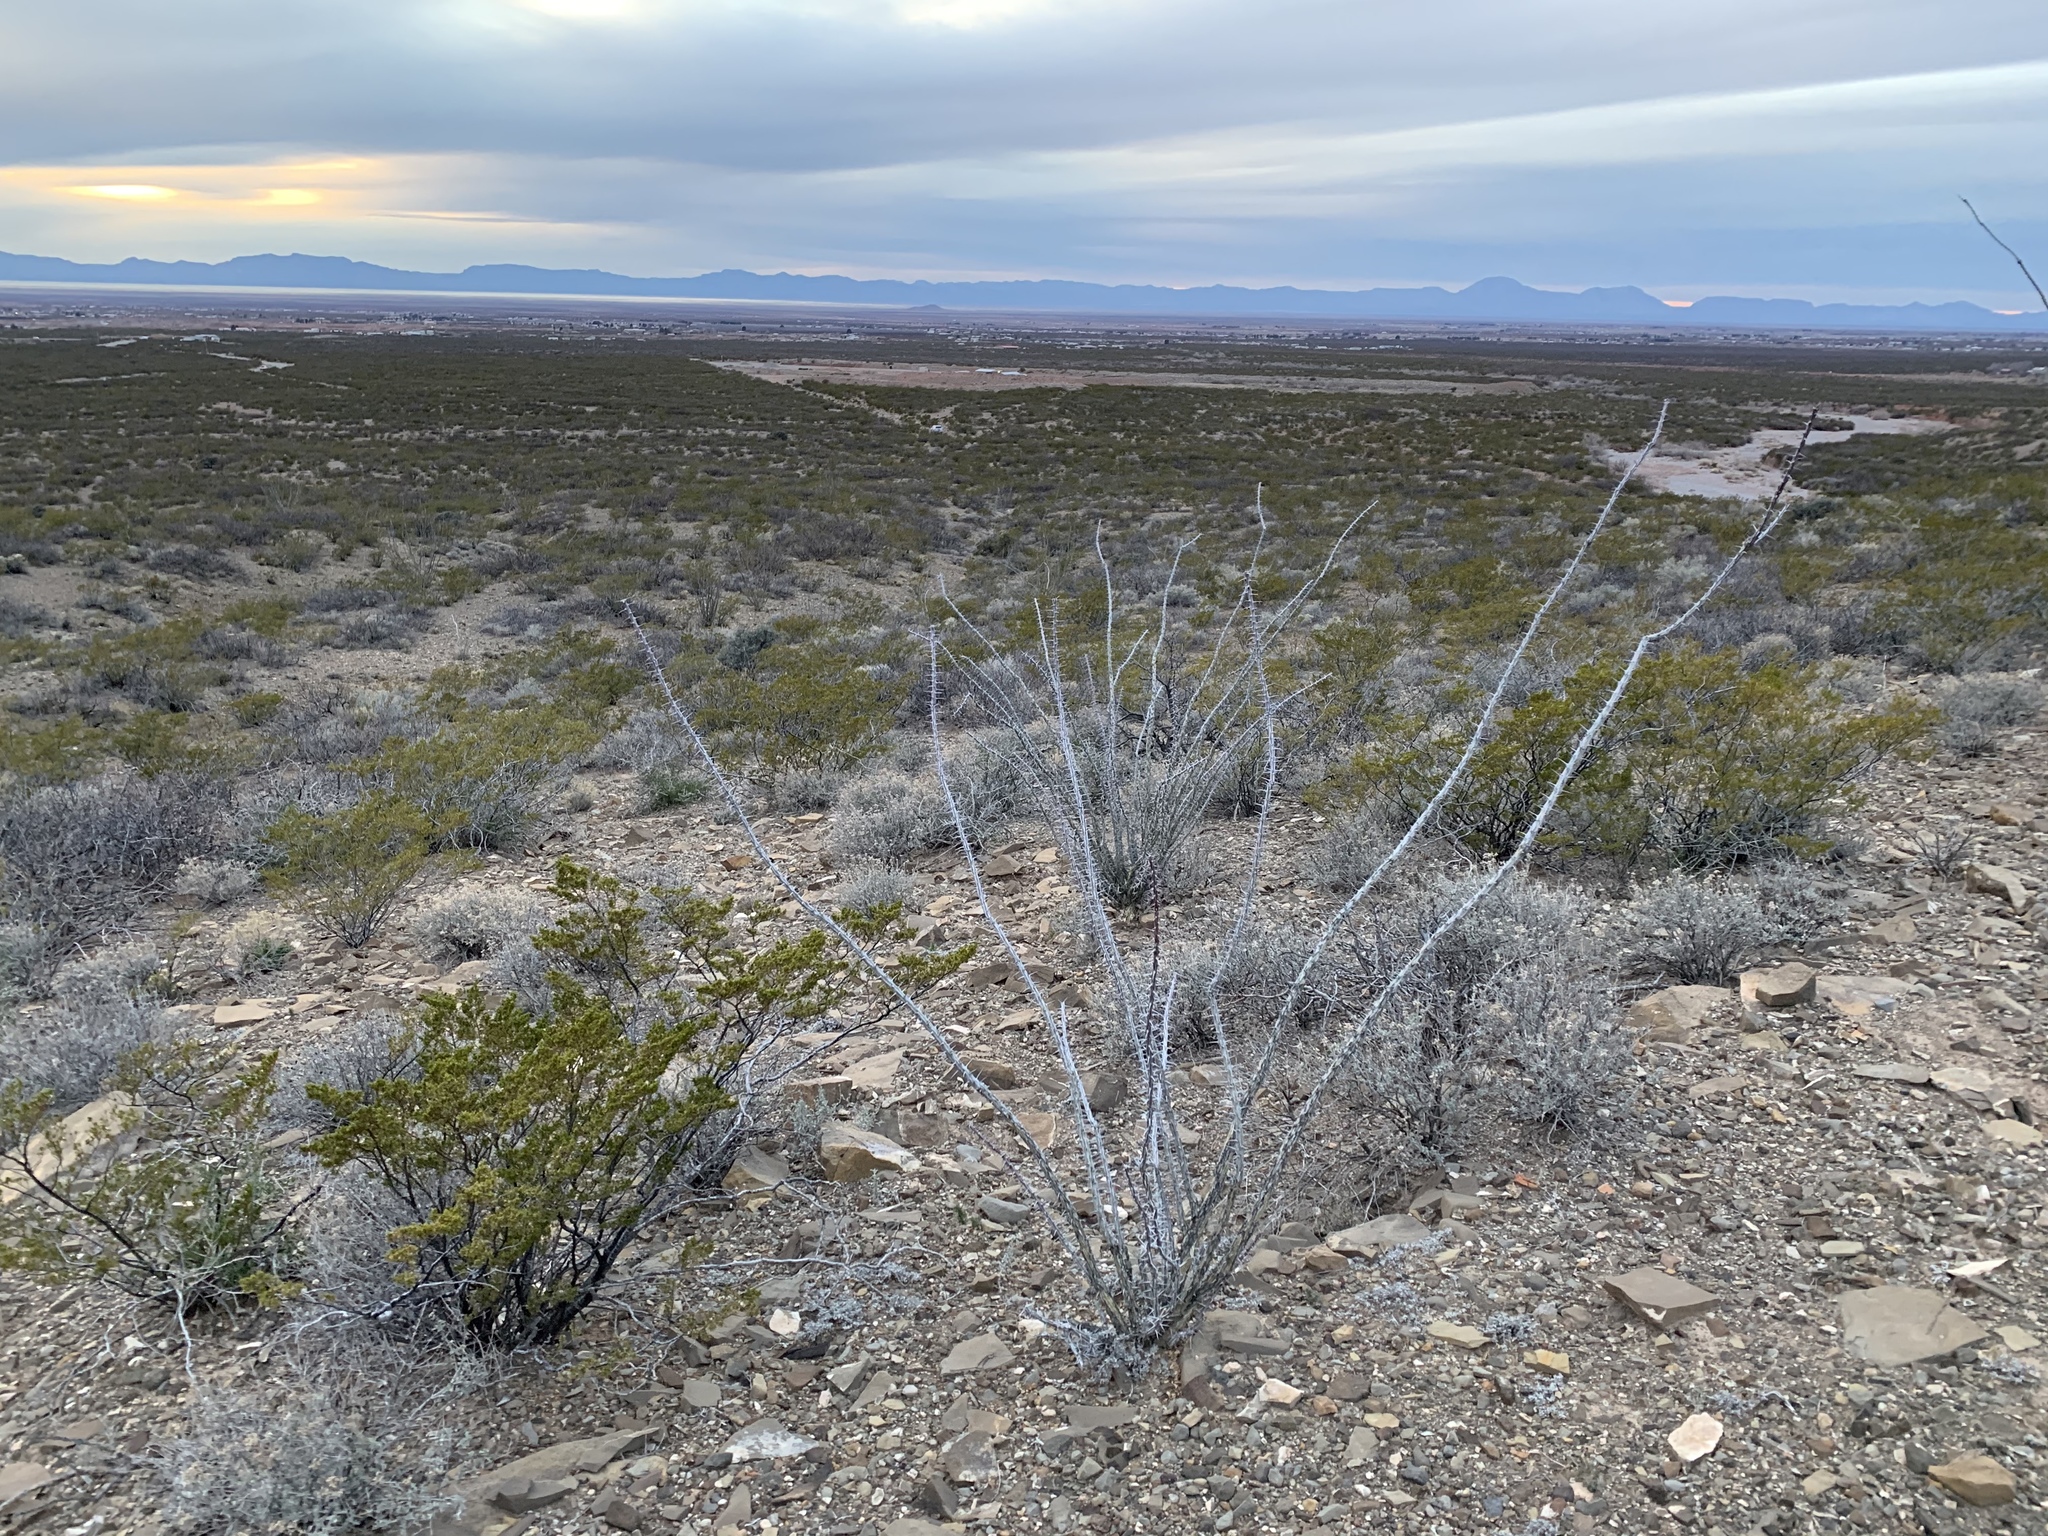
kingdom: Plantae
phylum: Tracheophyta
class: Magnoliopsida
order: Ericales
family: Fouquieriaceae
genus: Fouquieria
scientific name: Fouquieria splendens
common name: Vine-cactus
